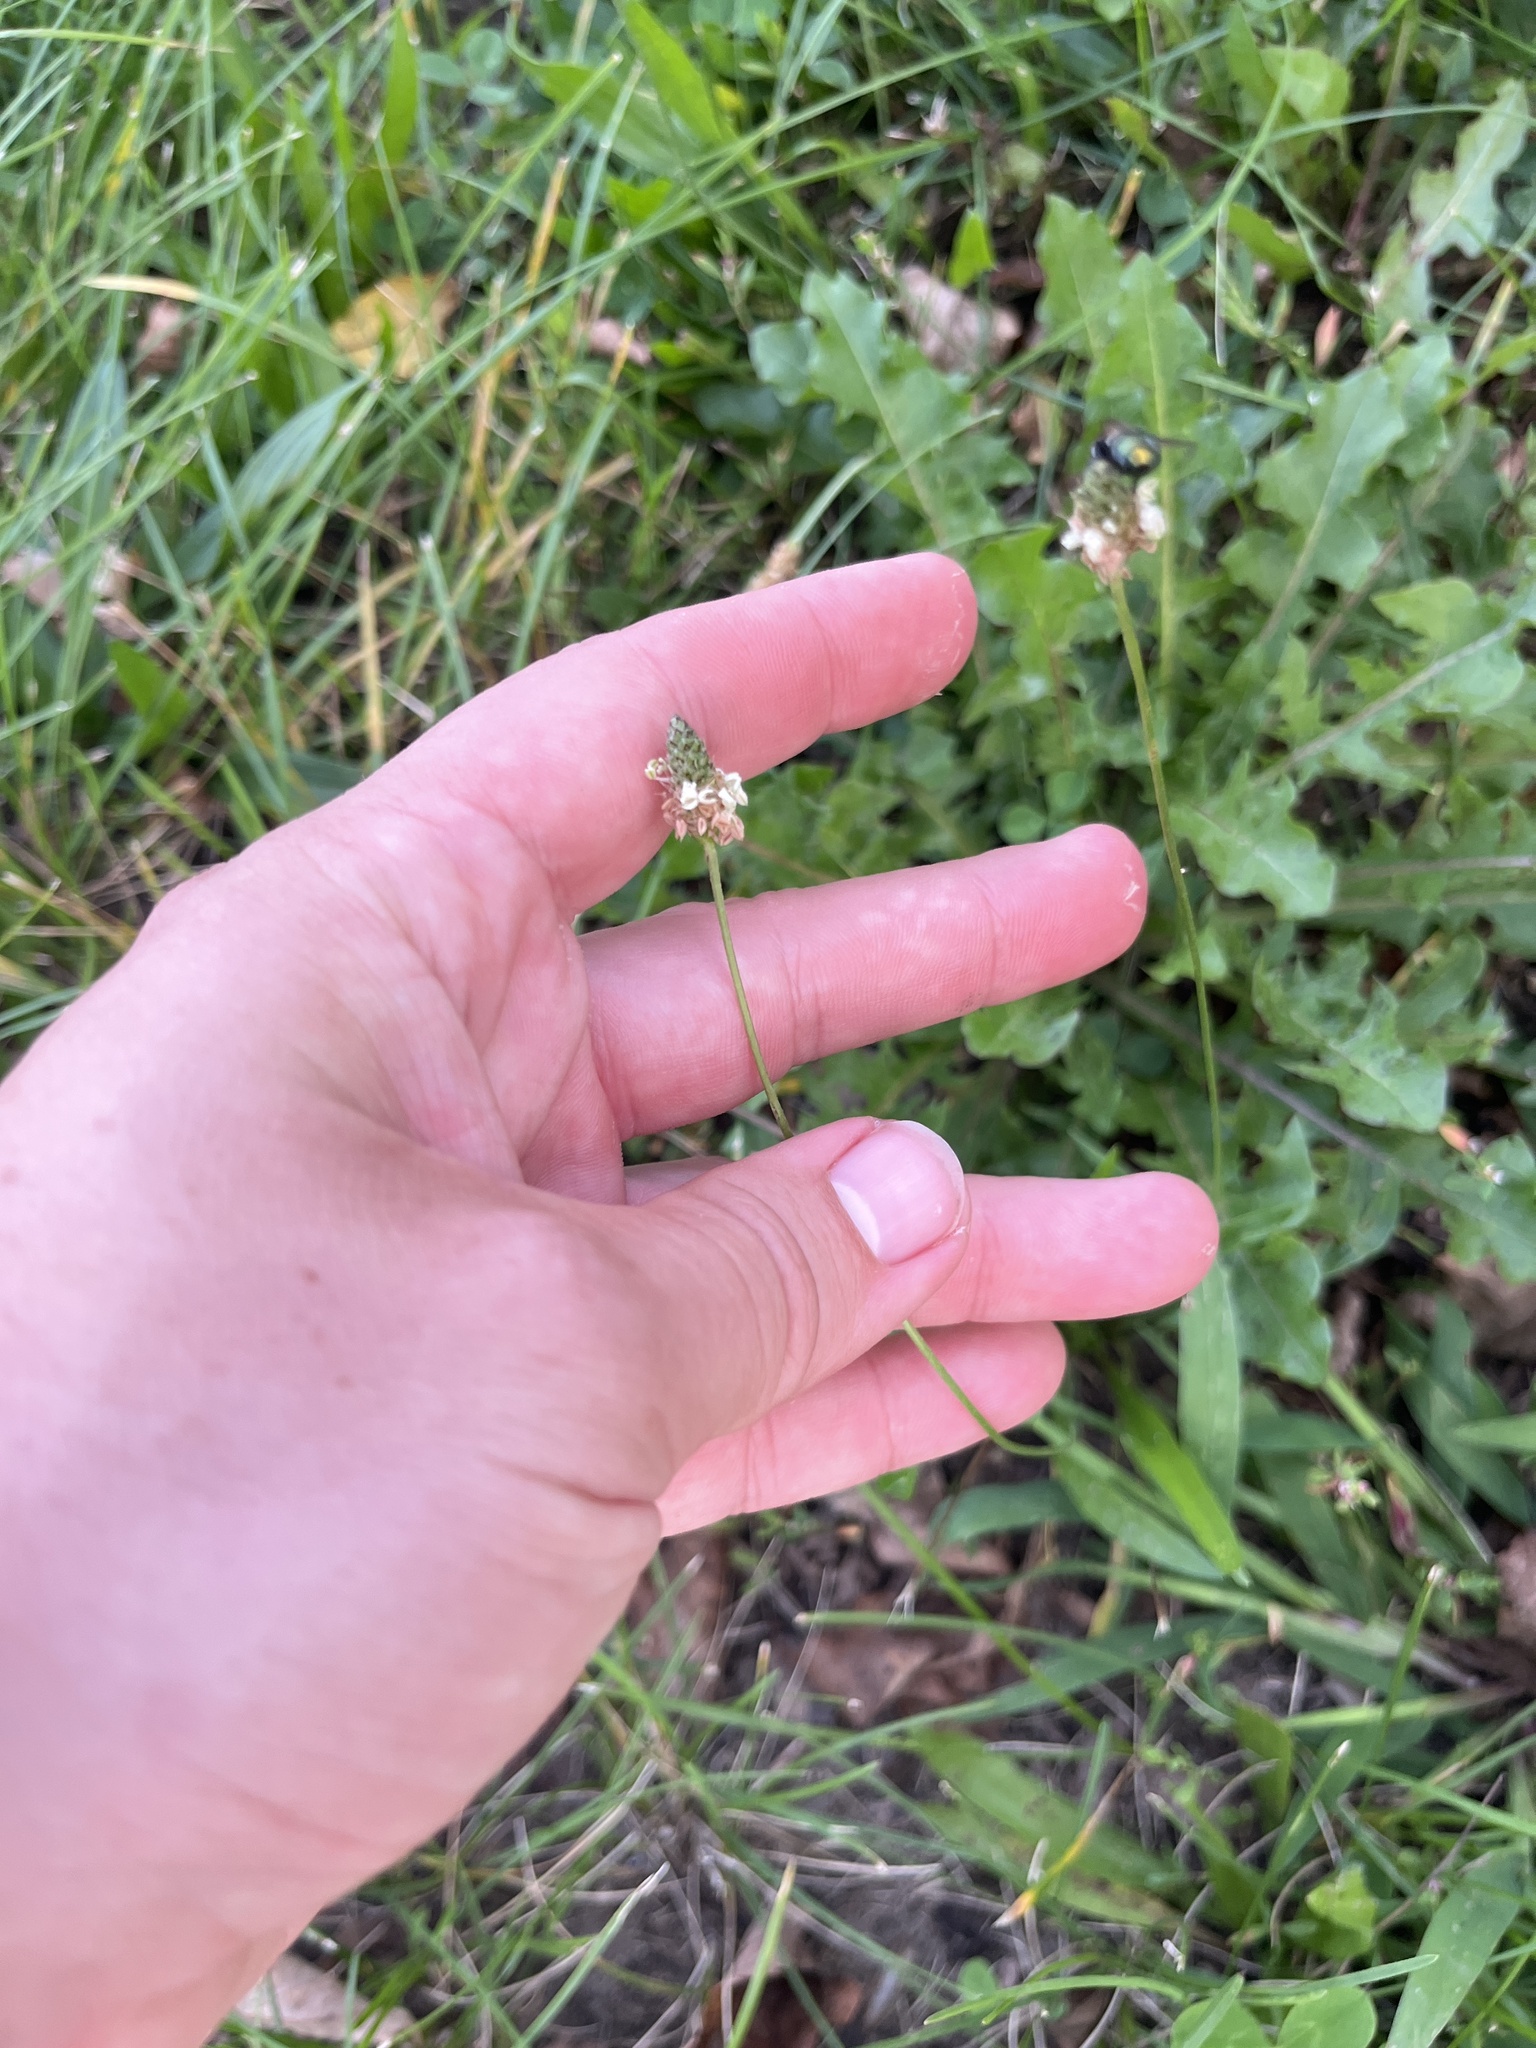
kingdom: Plantae
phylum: Tracheophyta
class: Magnoliopsida
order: Lamiales
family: Plantaginaceae
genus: Plantago
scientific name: Plantago lanceolata
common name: Ribwort plantain
